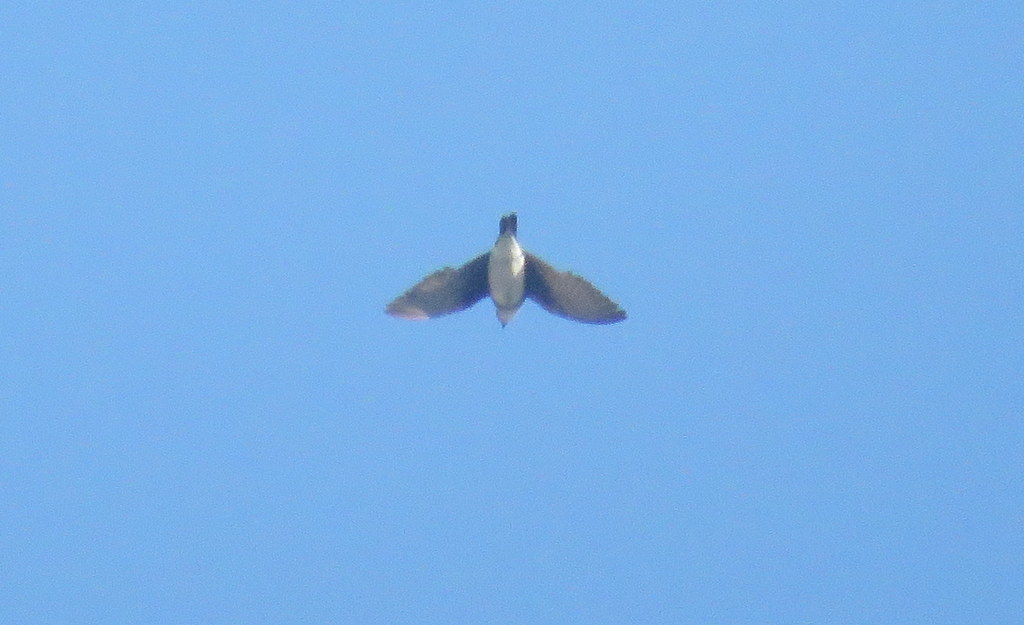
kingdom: Animalia
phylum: Chordata
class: Aves
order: Passeriformes
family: Hirundinidae
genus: Progne
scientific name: Progne tapera
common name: Brown-chested martin
